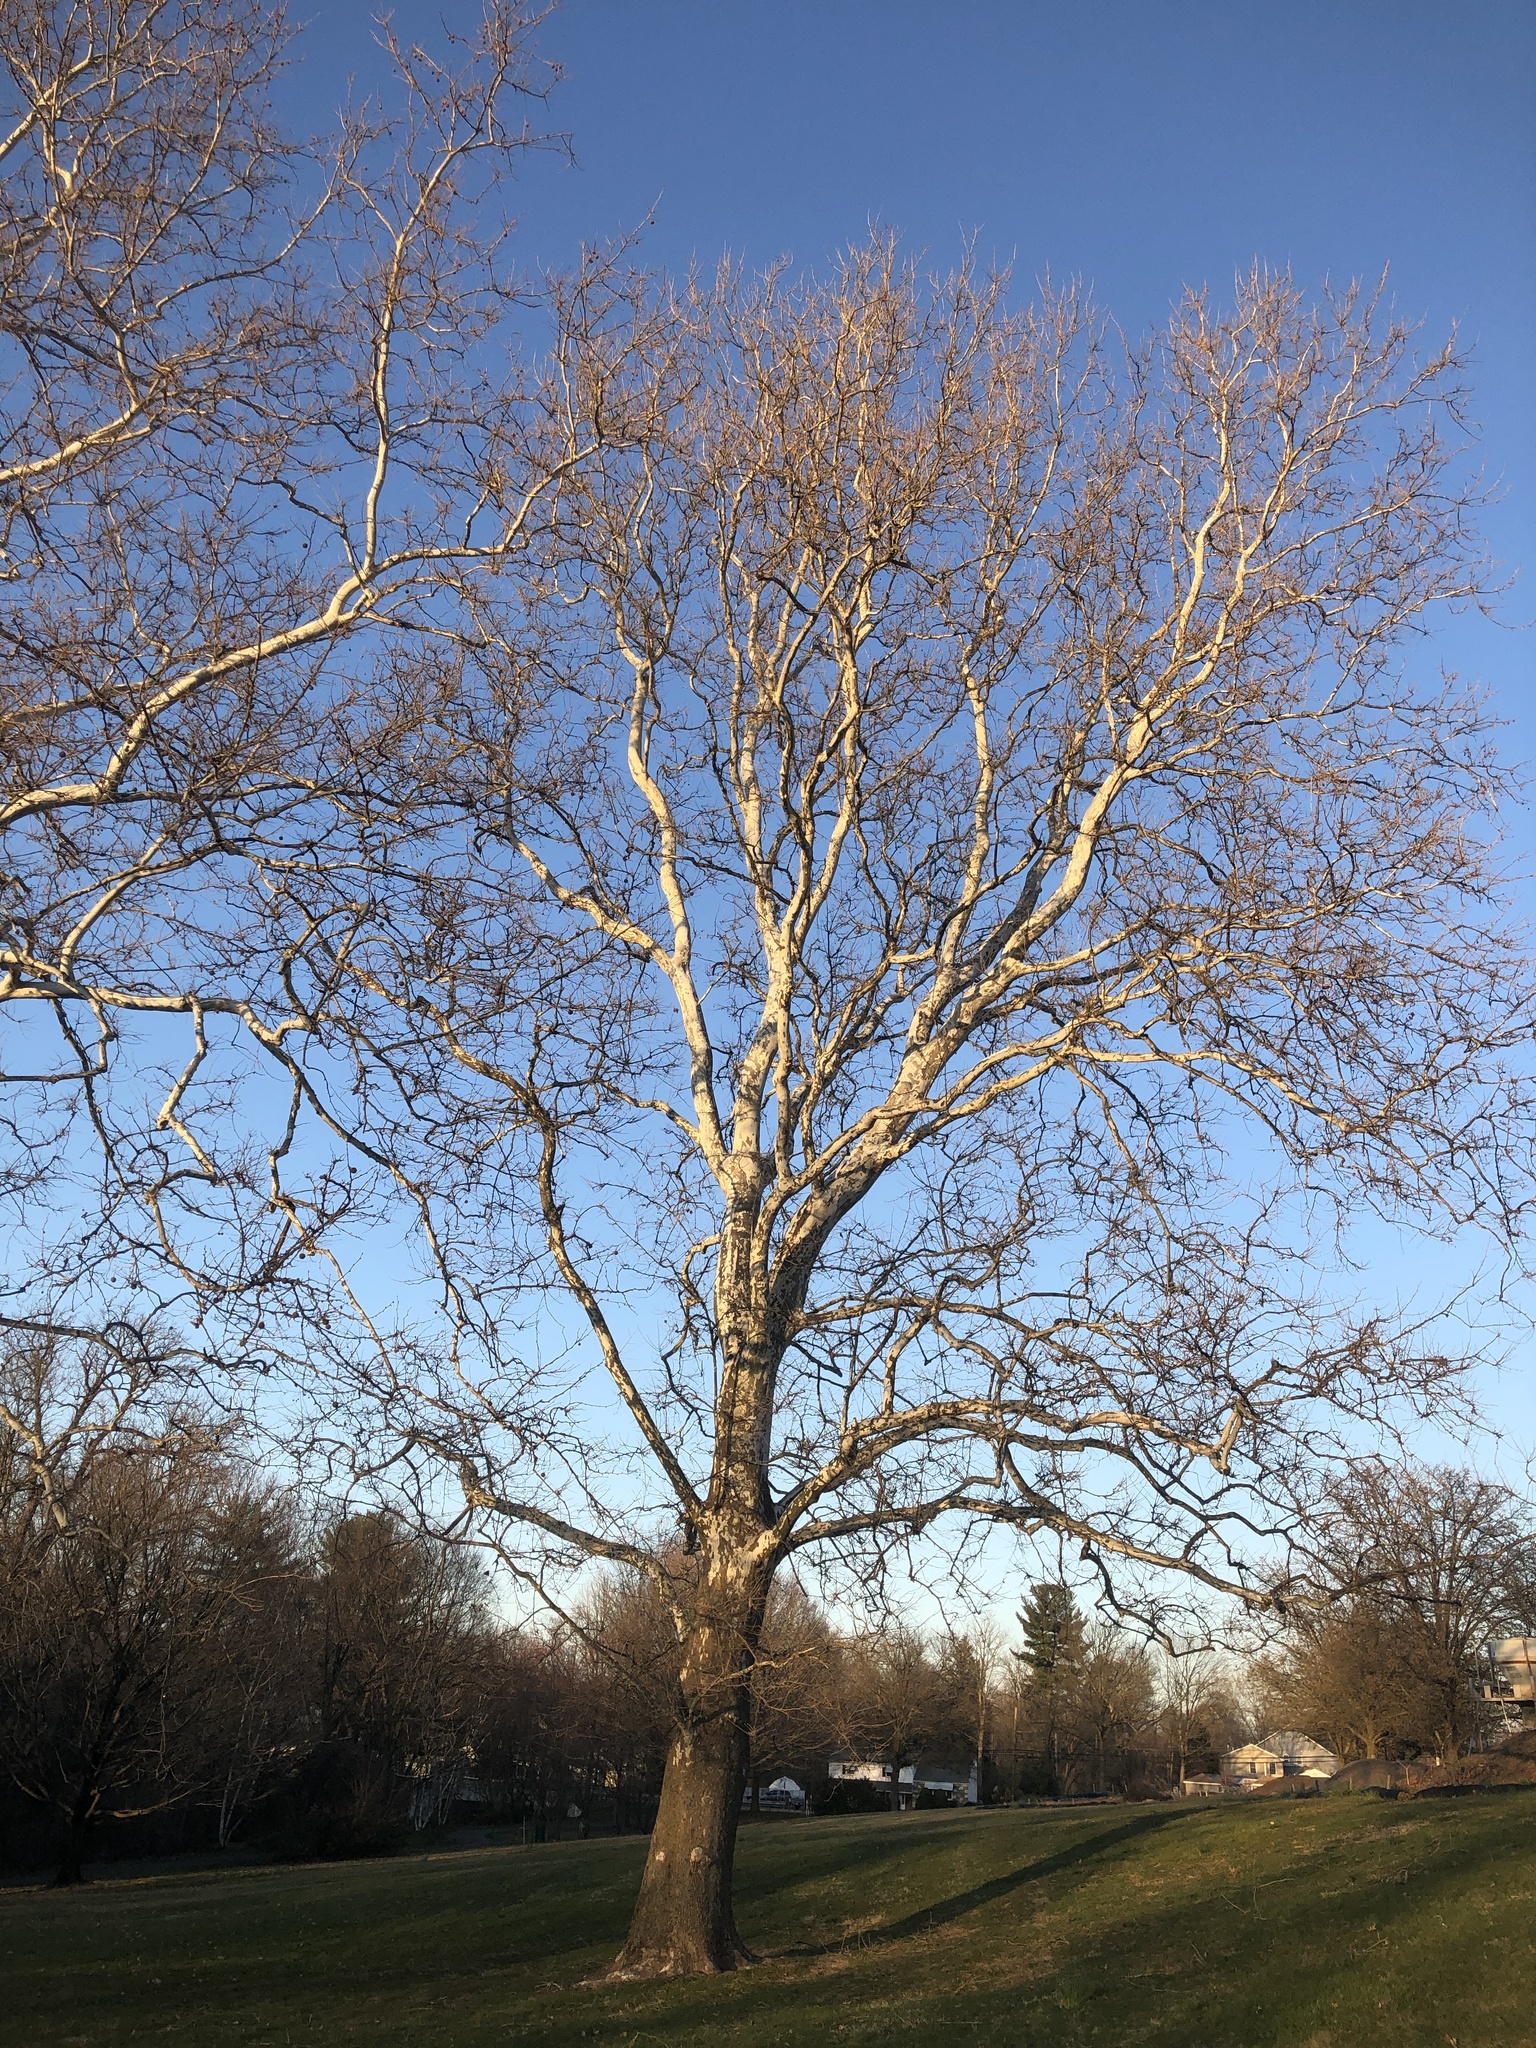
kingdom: Plantae
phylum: Tracheophyta
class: Magnoliopsida
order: Proteales
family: Platanaceae
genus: Platanus
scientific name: Platanus occidentalis
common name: American sycamore
